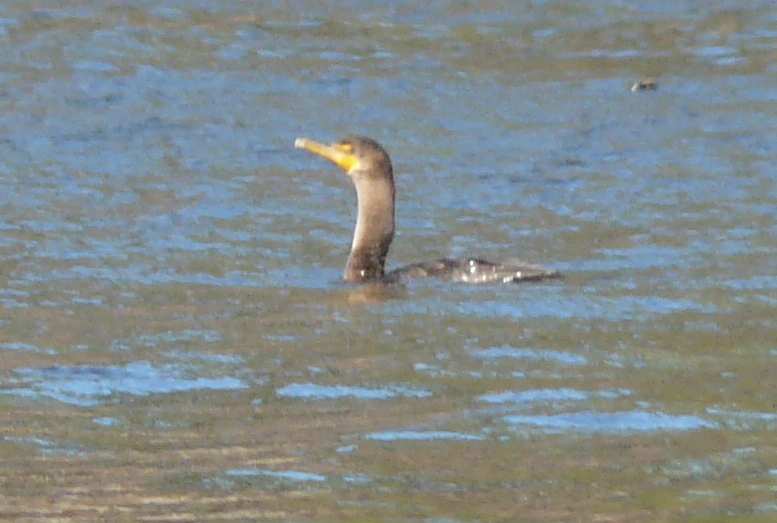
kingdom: Animalia
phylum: Chordata
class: Aves
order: Suliformes
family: Phalacrocoracidae
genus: Phalacrocorax
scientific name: Phalacrocorax auritus
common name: Double-crested cormorant
